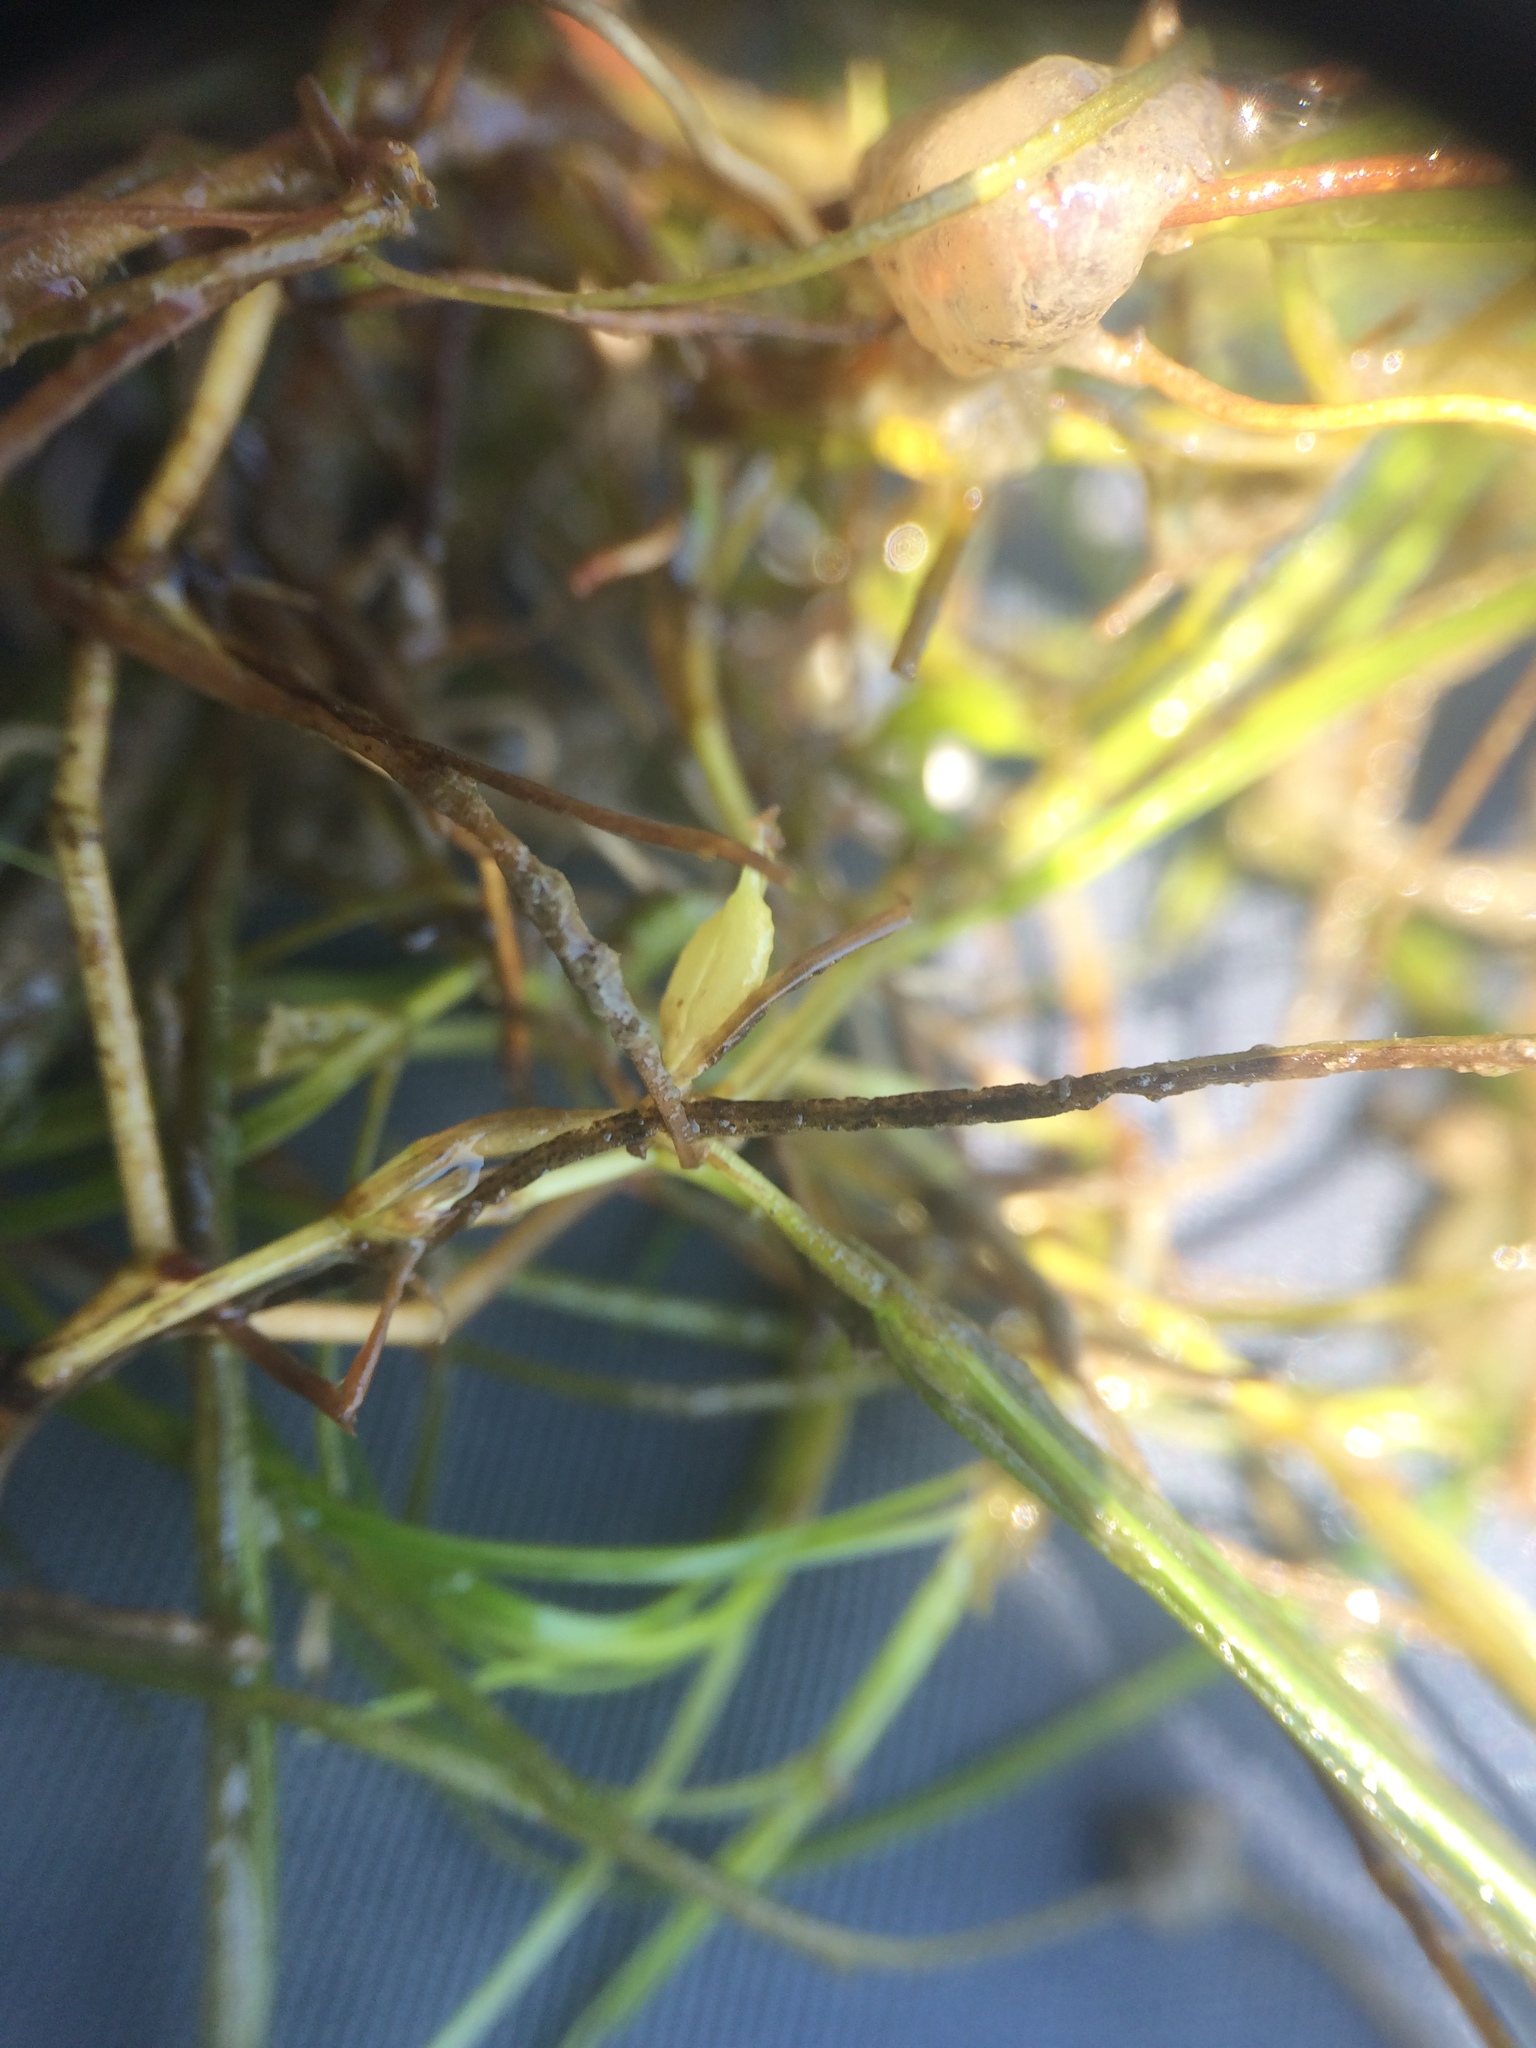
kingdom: Plantae
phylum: Tracheophyta
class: Liliopsida
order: Alismatales
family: Potamogetonaceae
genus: Zannichellia
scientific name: Zannichellia palustris
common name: Horned pondweed
